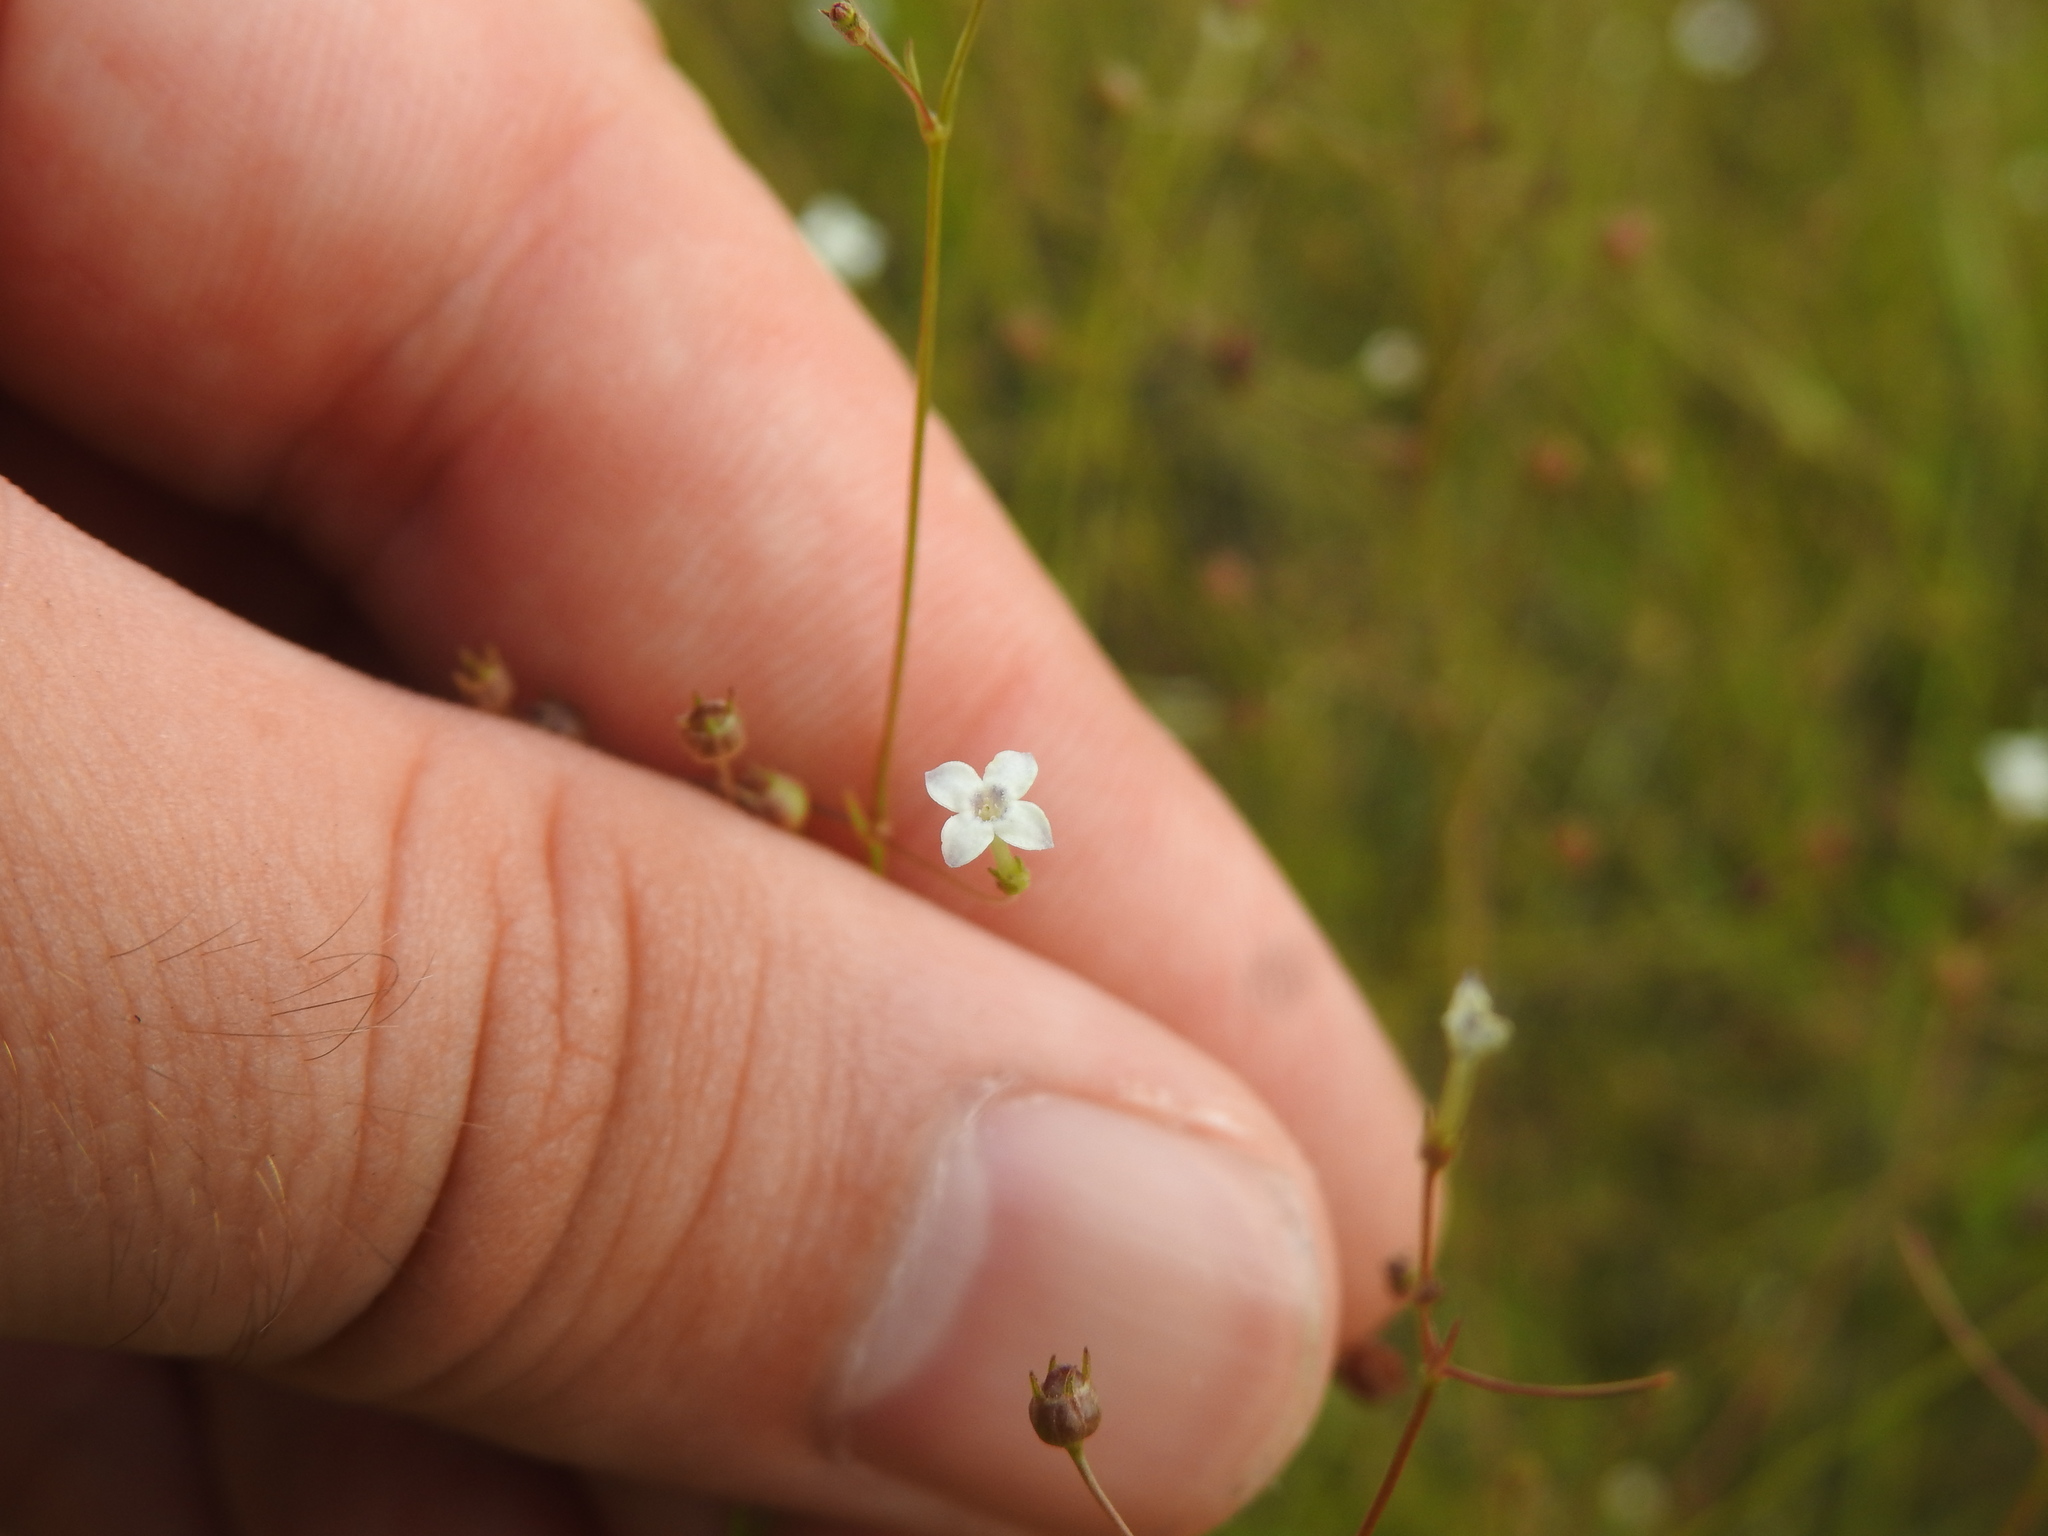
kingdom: Plantae
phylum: Tracheophyta
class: Magnoliopsida
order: Gentianales
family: Rubiaceae
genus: Oldenlandia
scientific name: Oldenlandia herbacea
